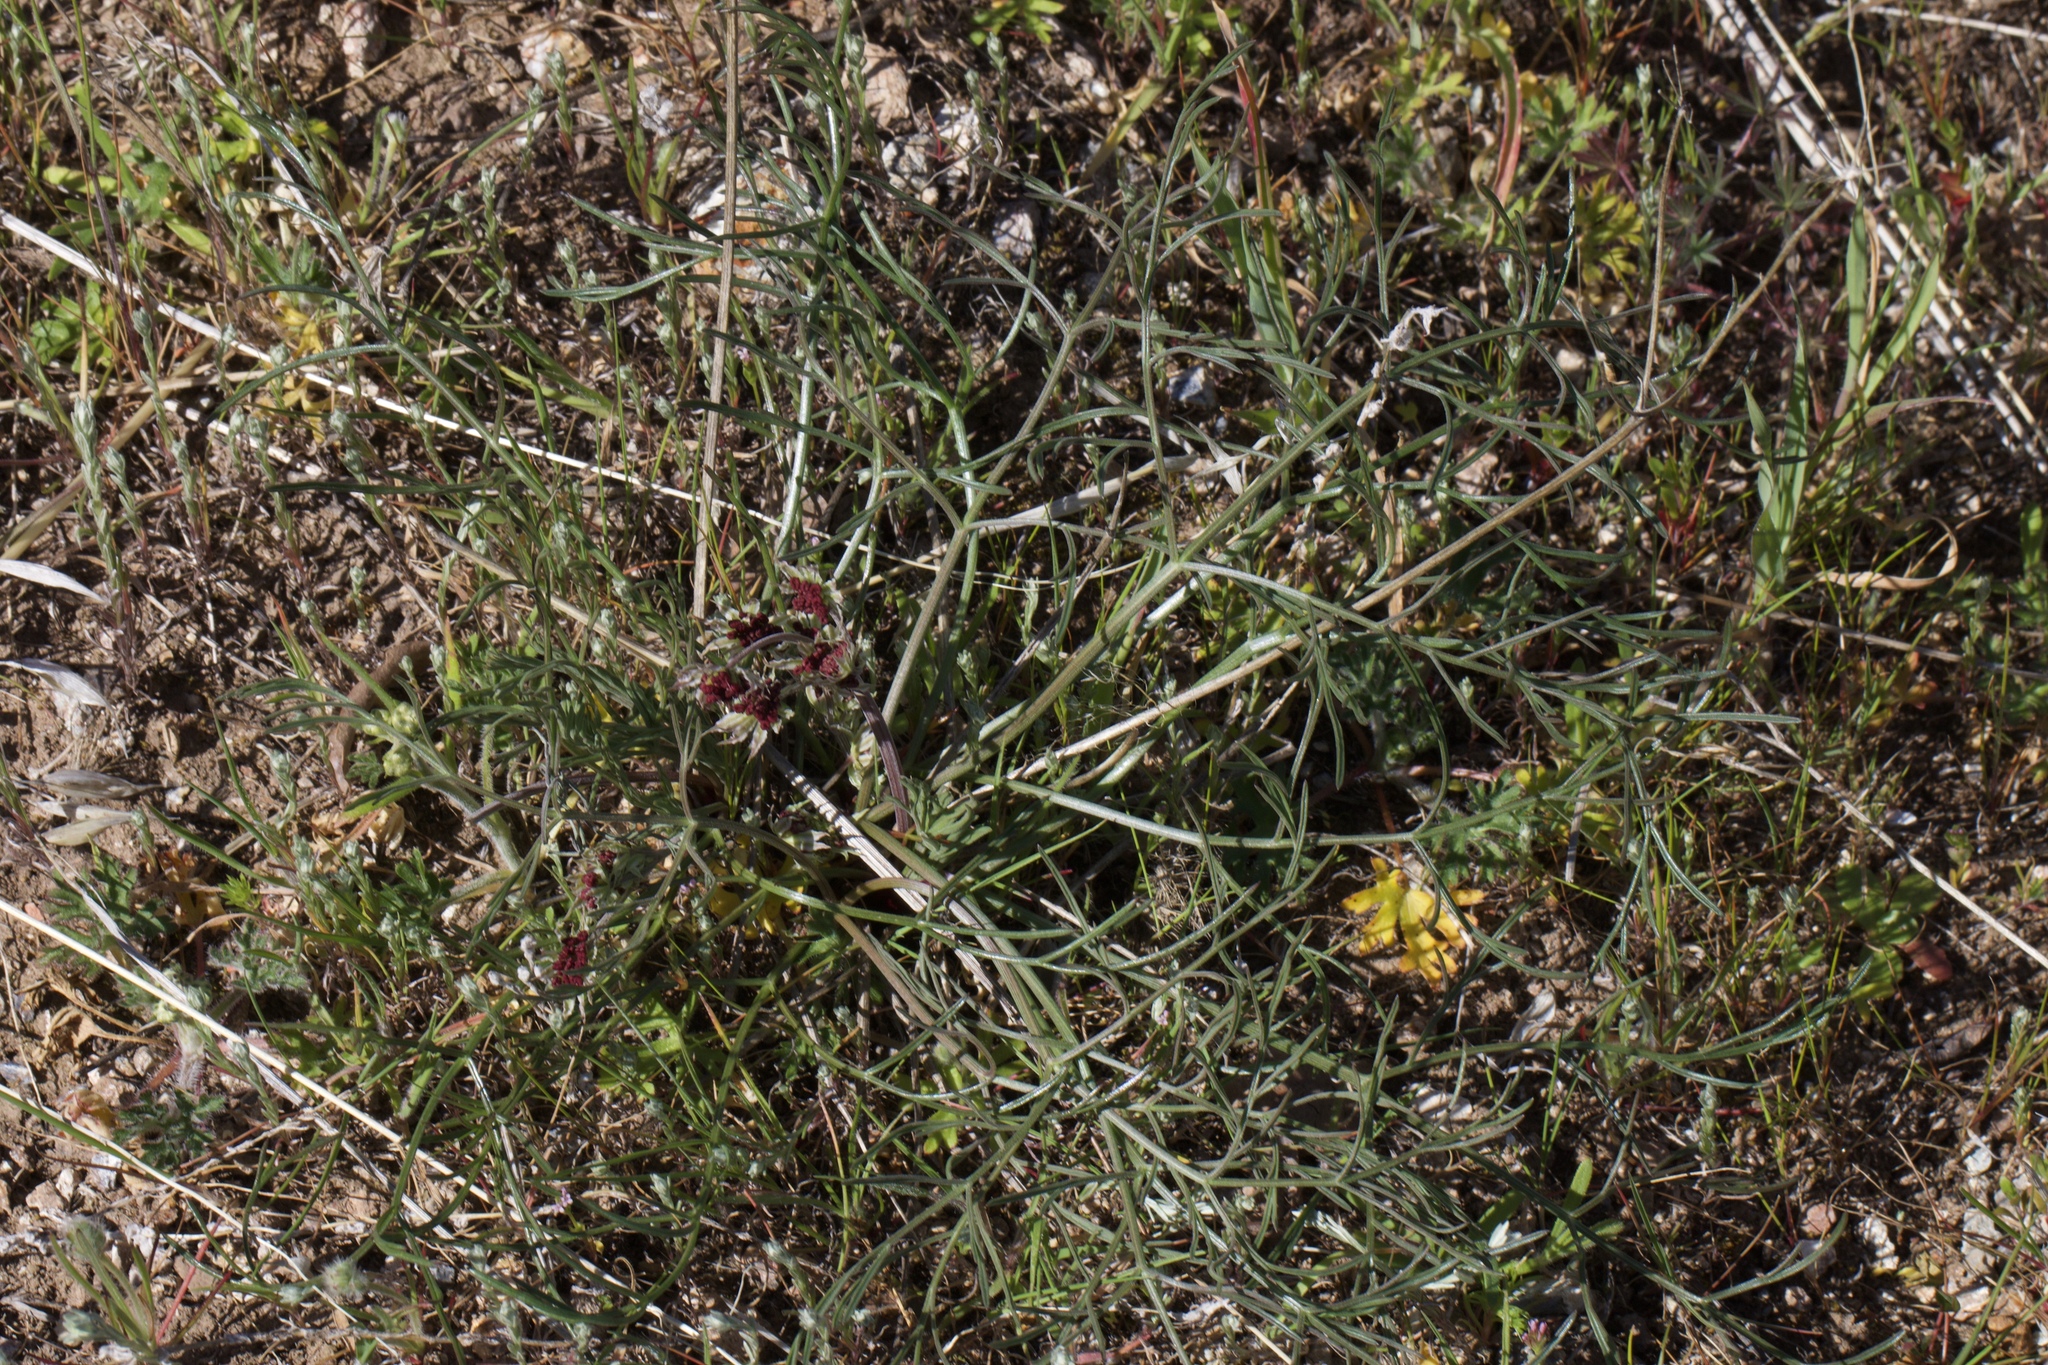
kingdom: Plantae
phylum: Tracheophyta
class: Magnoliopsida
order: Apiales
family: Apiaceae
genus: Lomatium
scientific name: Lomatium hooveri
